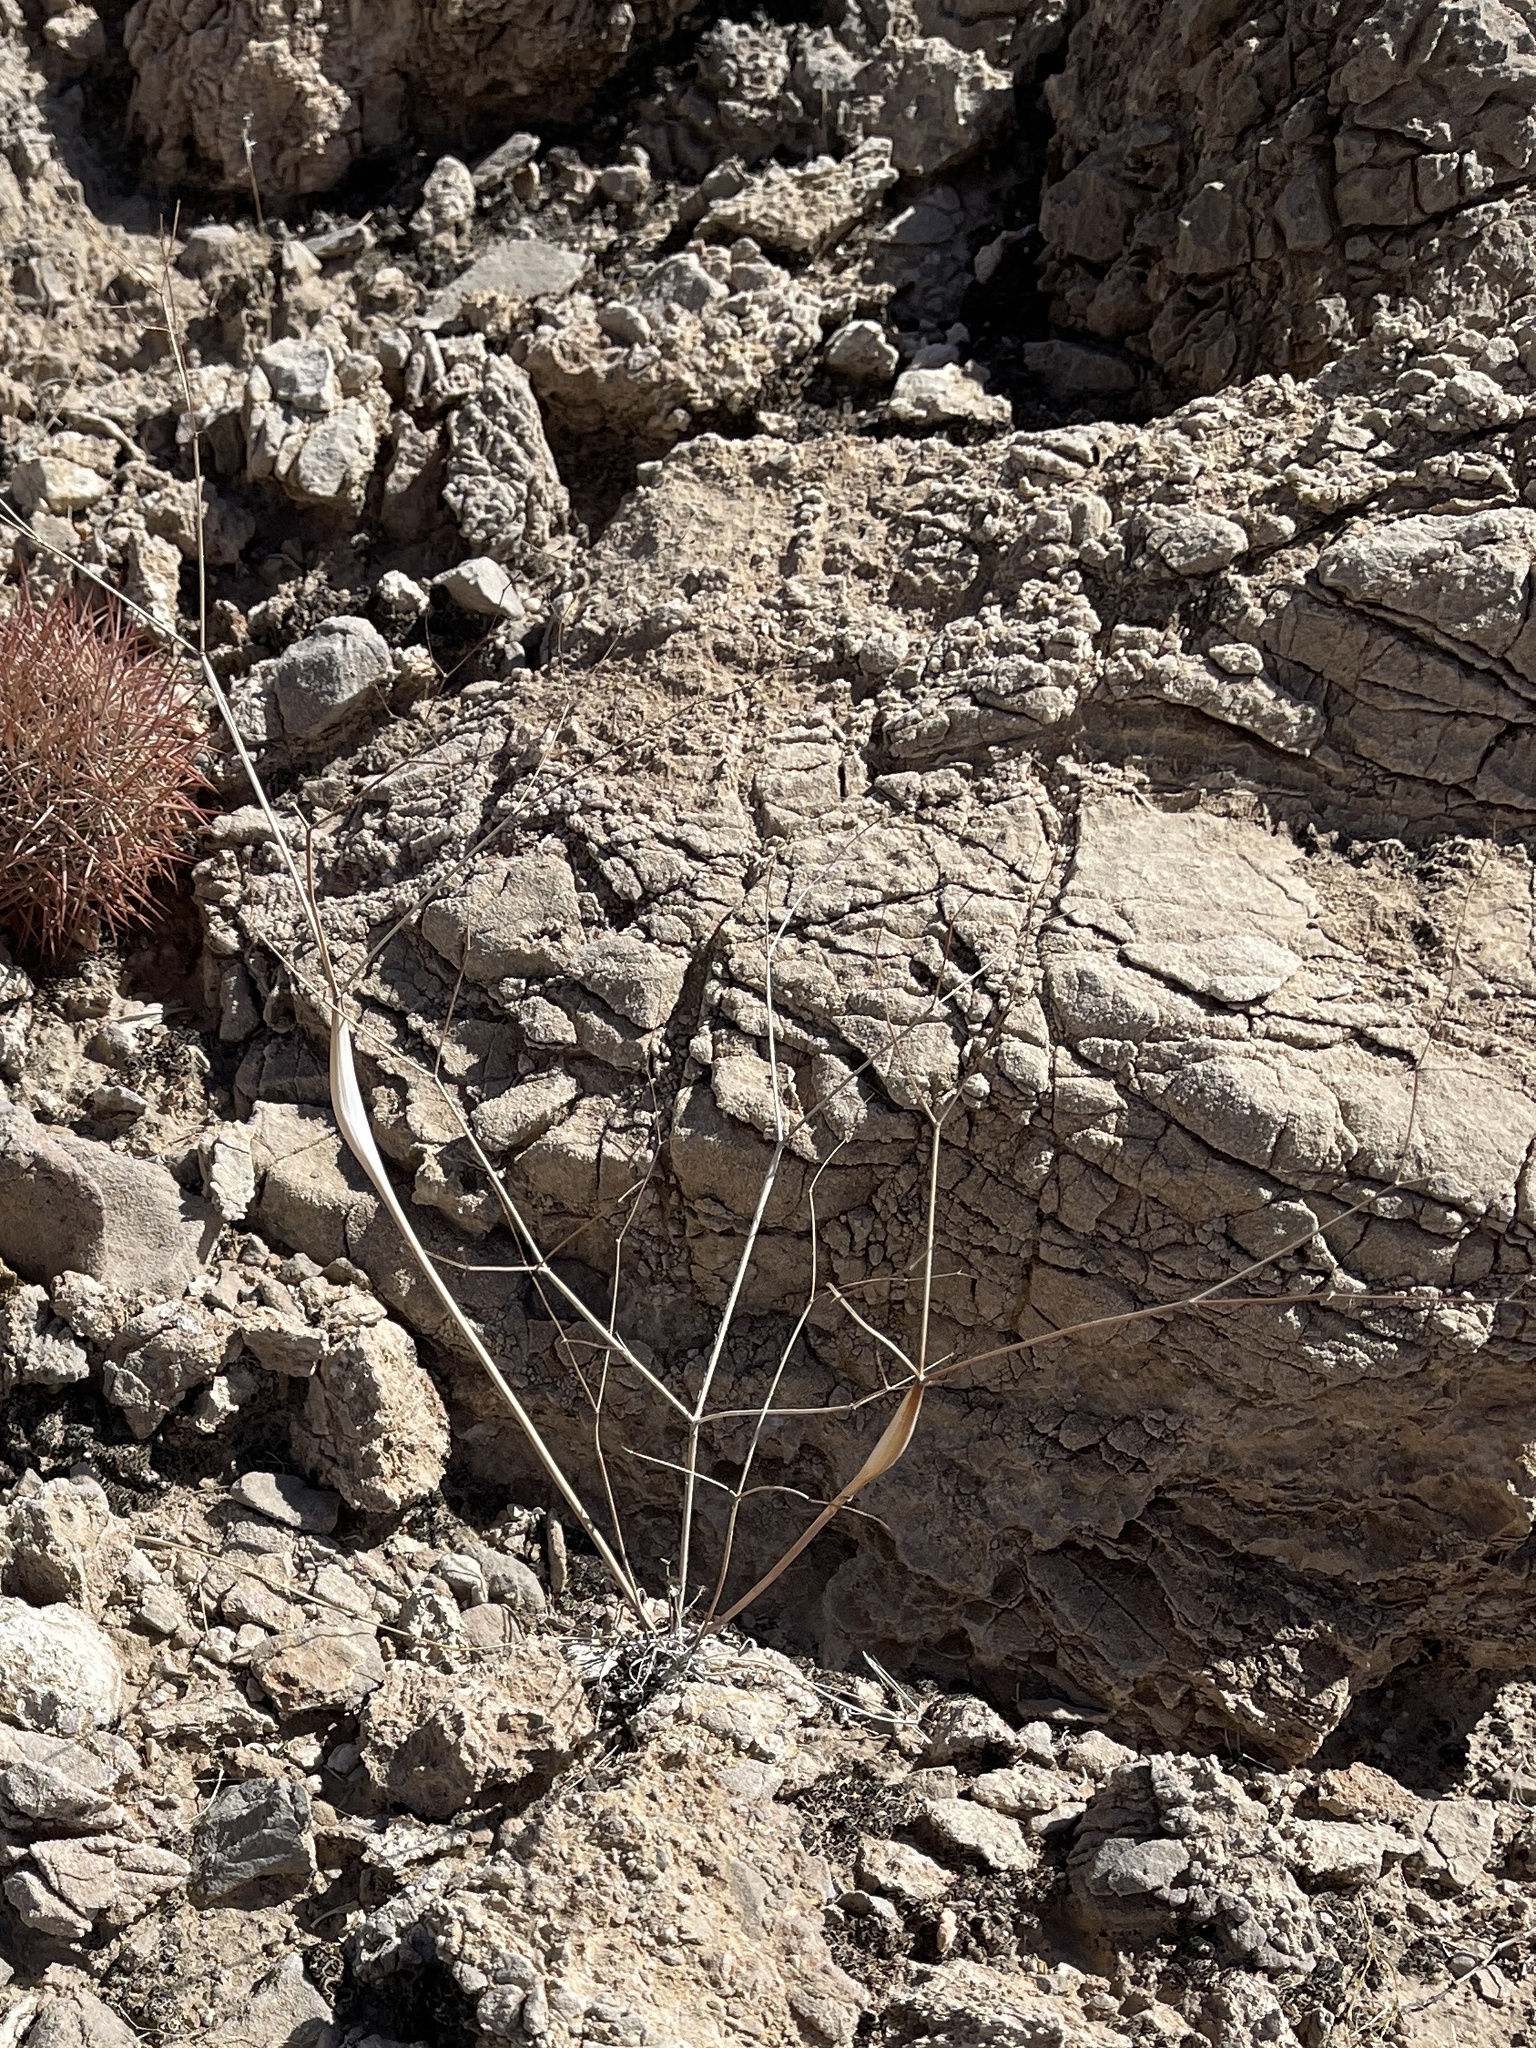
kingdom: Plantae
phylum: Tracheophyta
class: Magnoliopsida
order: Caryophyllales
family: Polygonaceae
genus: Eriogonum
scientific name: Eriogonum inflatum
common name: Desert trumpet
